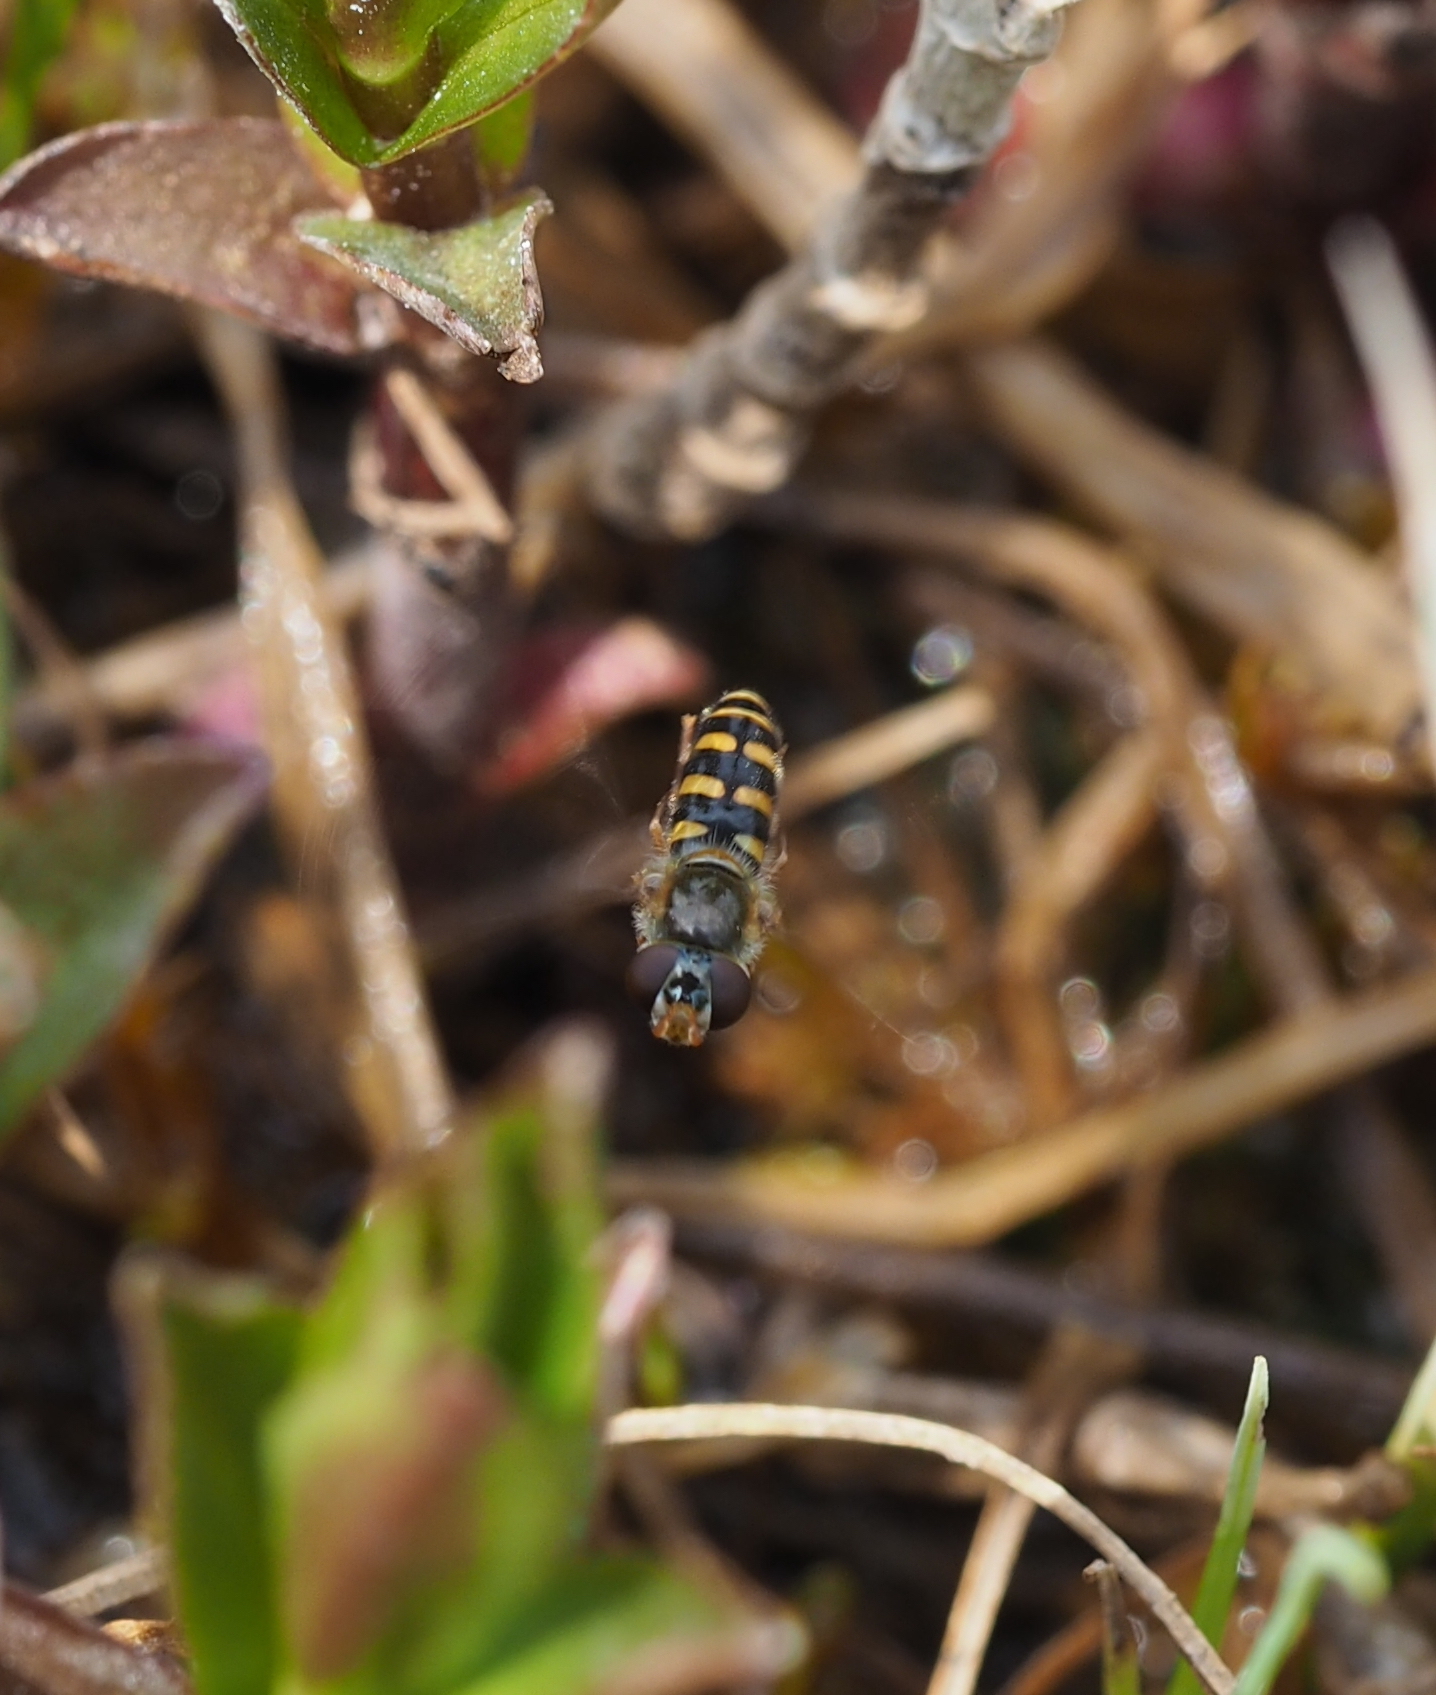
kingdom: Animalia
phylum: Arthropoda
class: Insecta
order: Diptera
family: Syrphidae
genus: Epistrophella
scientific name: Epistrophella euchromus
